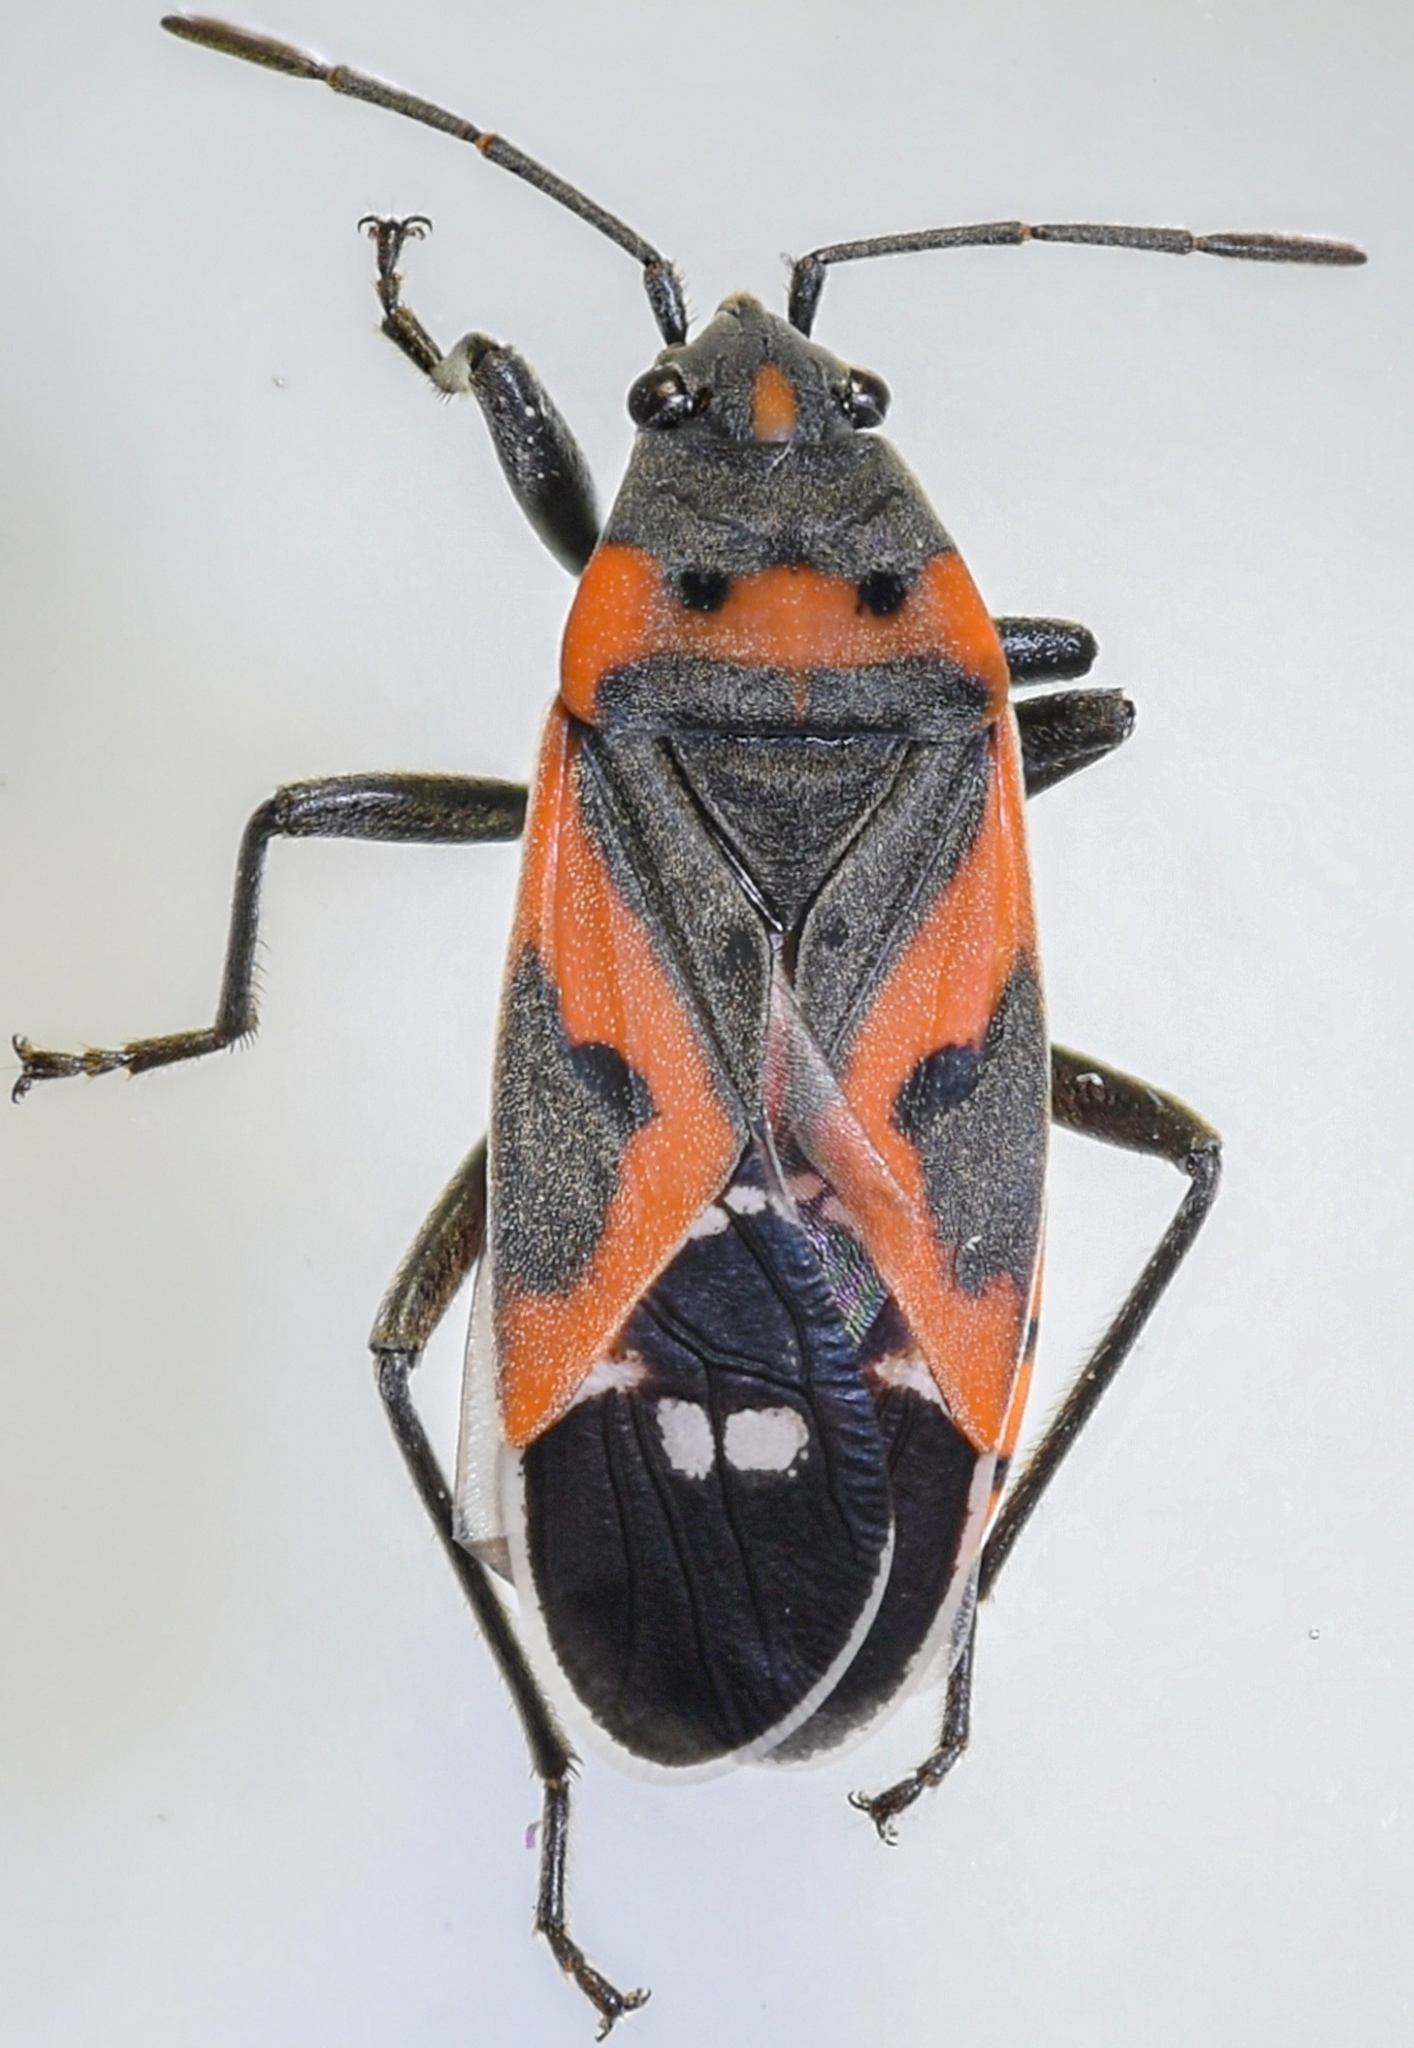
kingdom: Animalia
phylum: Arthropoda
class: Insecta
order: Hemiptera
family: Lygaeidae
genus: Lygaeus
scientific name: Lygaeus kalmii
